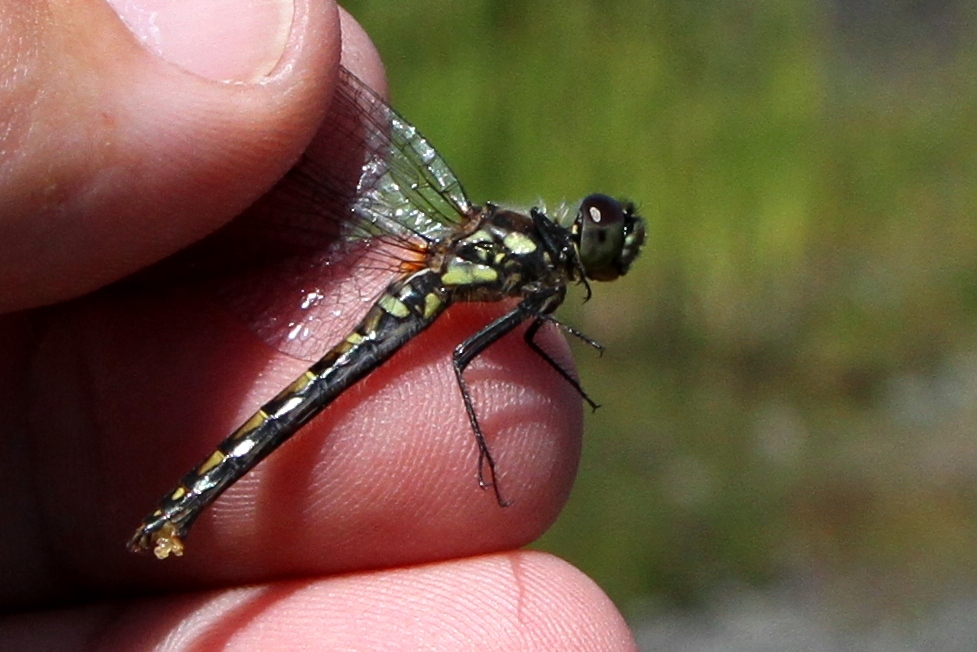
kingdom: Animalia
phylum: Arthropoda
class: Insecta
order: Odonata
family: Libellulidae
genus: Sympetrum
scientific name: Sympetrum danae
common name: Black darter
